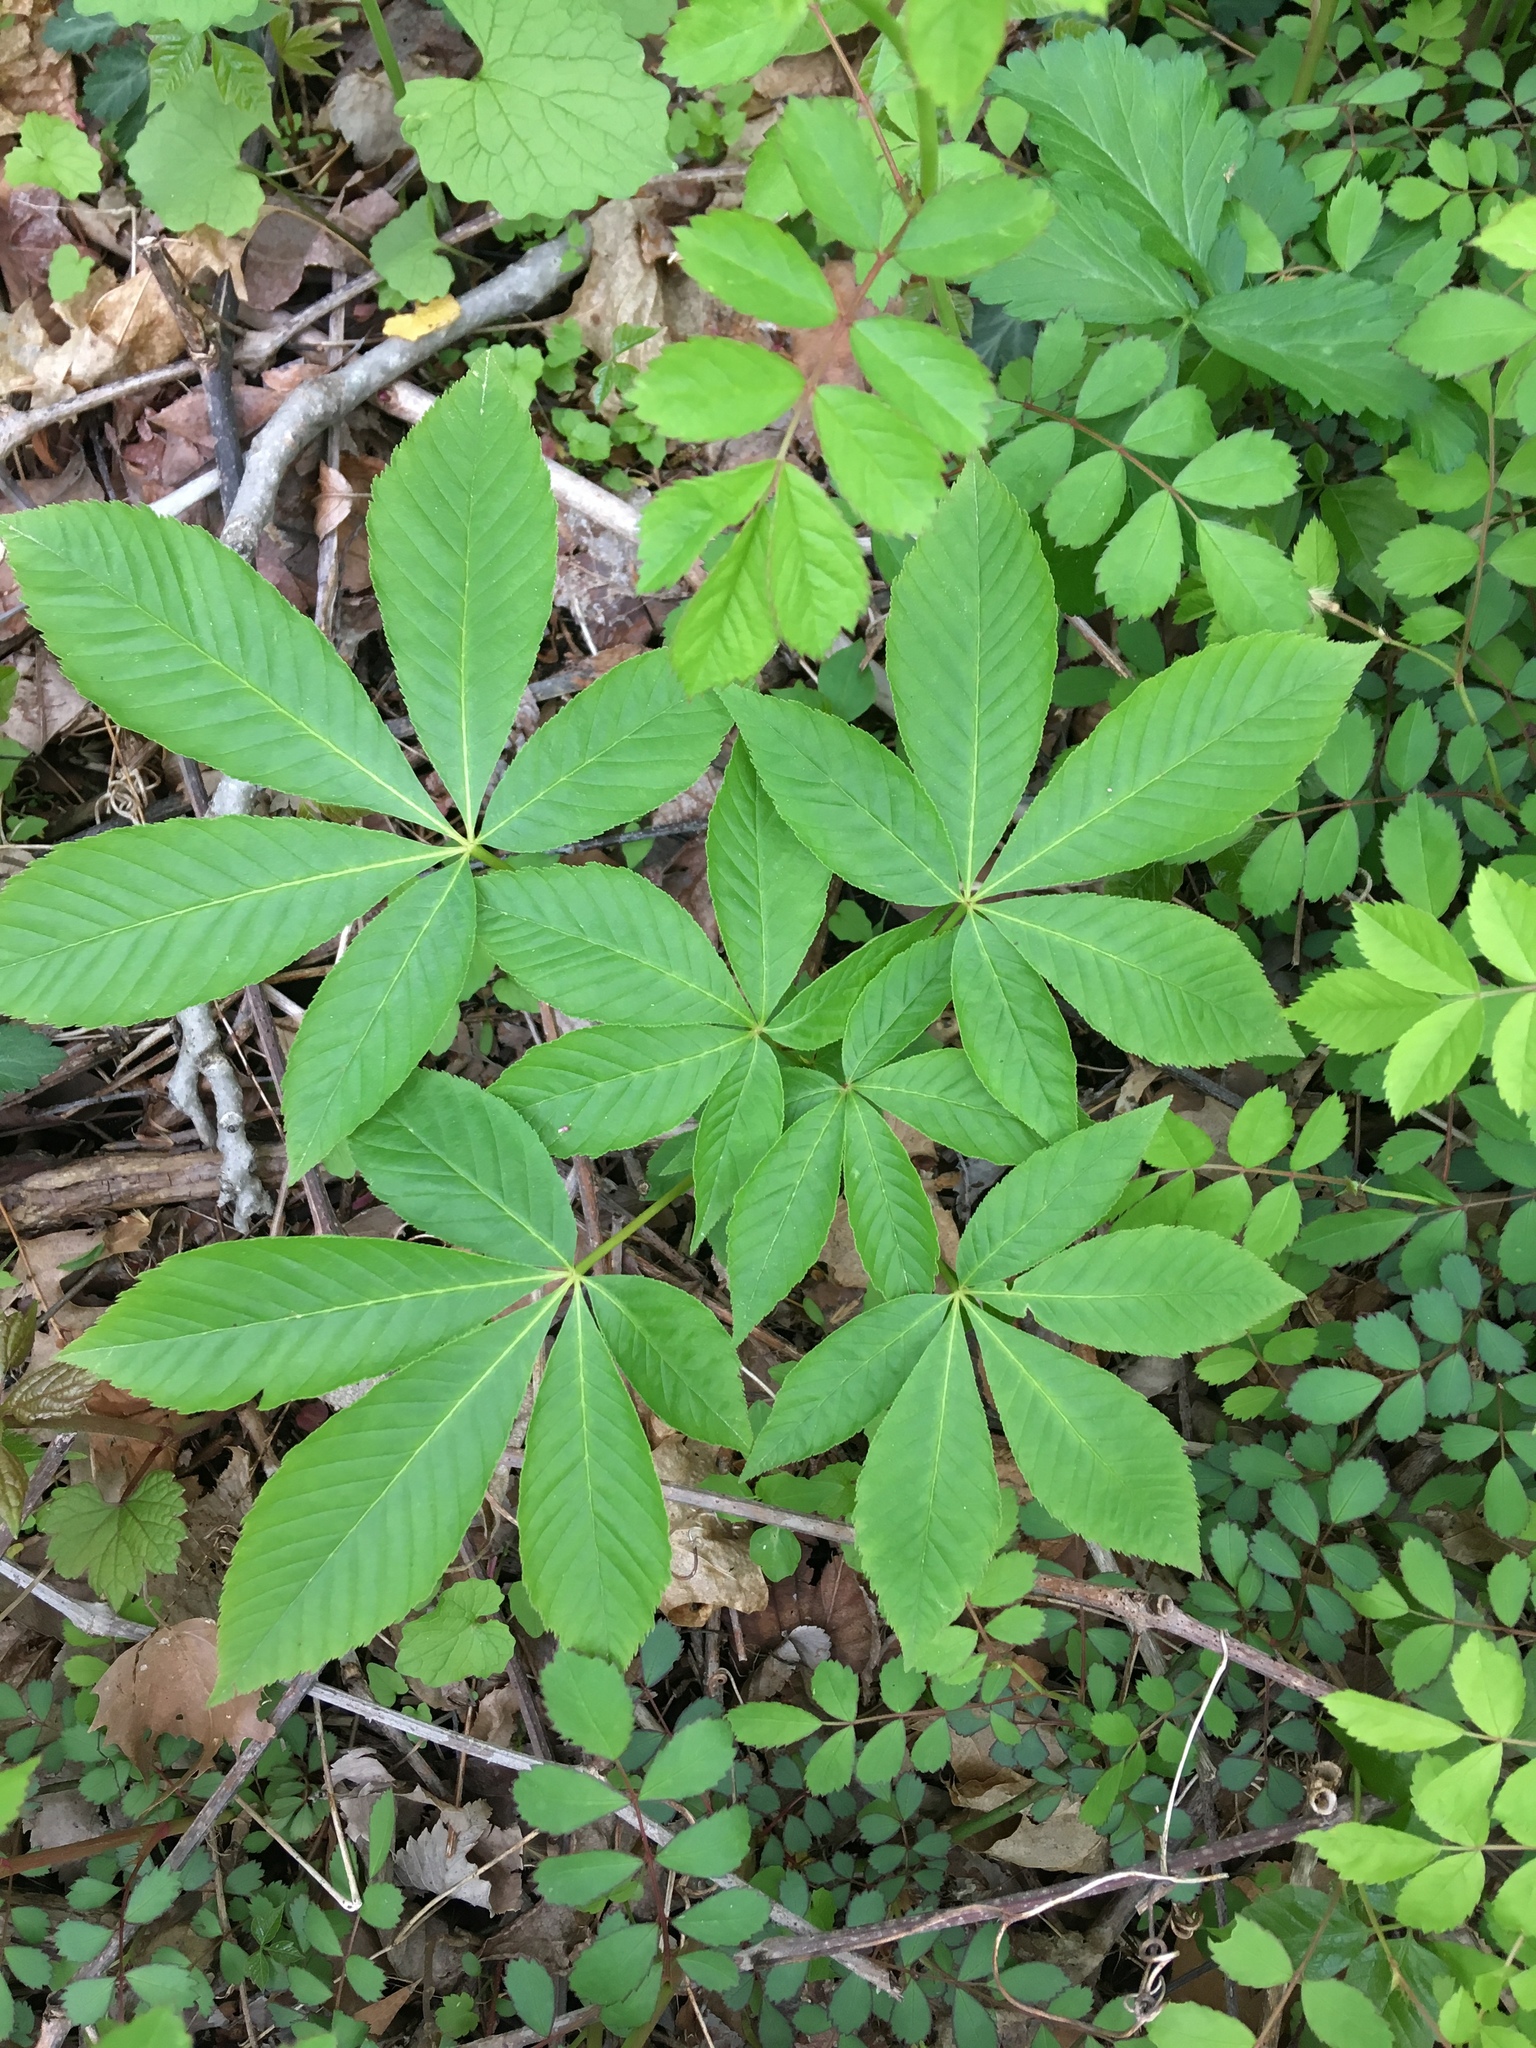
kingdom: Plantae
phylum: Tracheophyta
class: Magnoliopsida
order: Sapindales
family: Sapindaceae
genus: Aesculus
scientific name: Aesculus glabra
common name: Ohio buckeye
